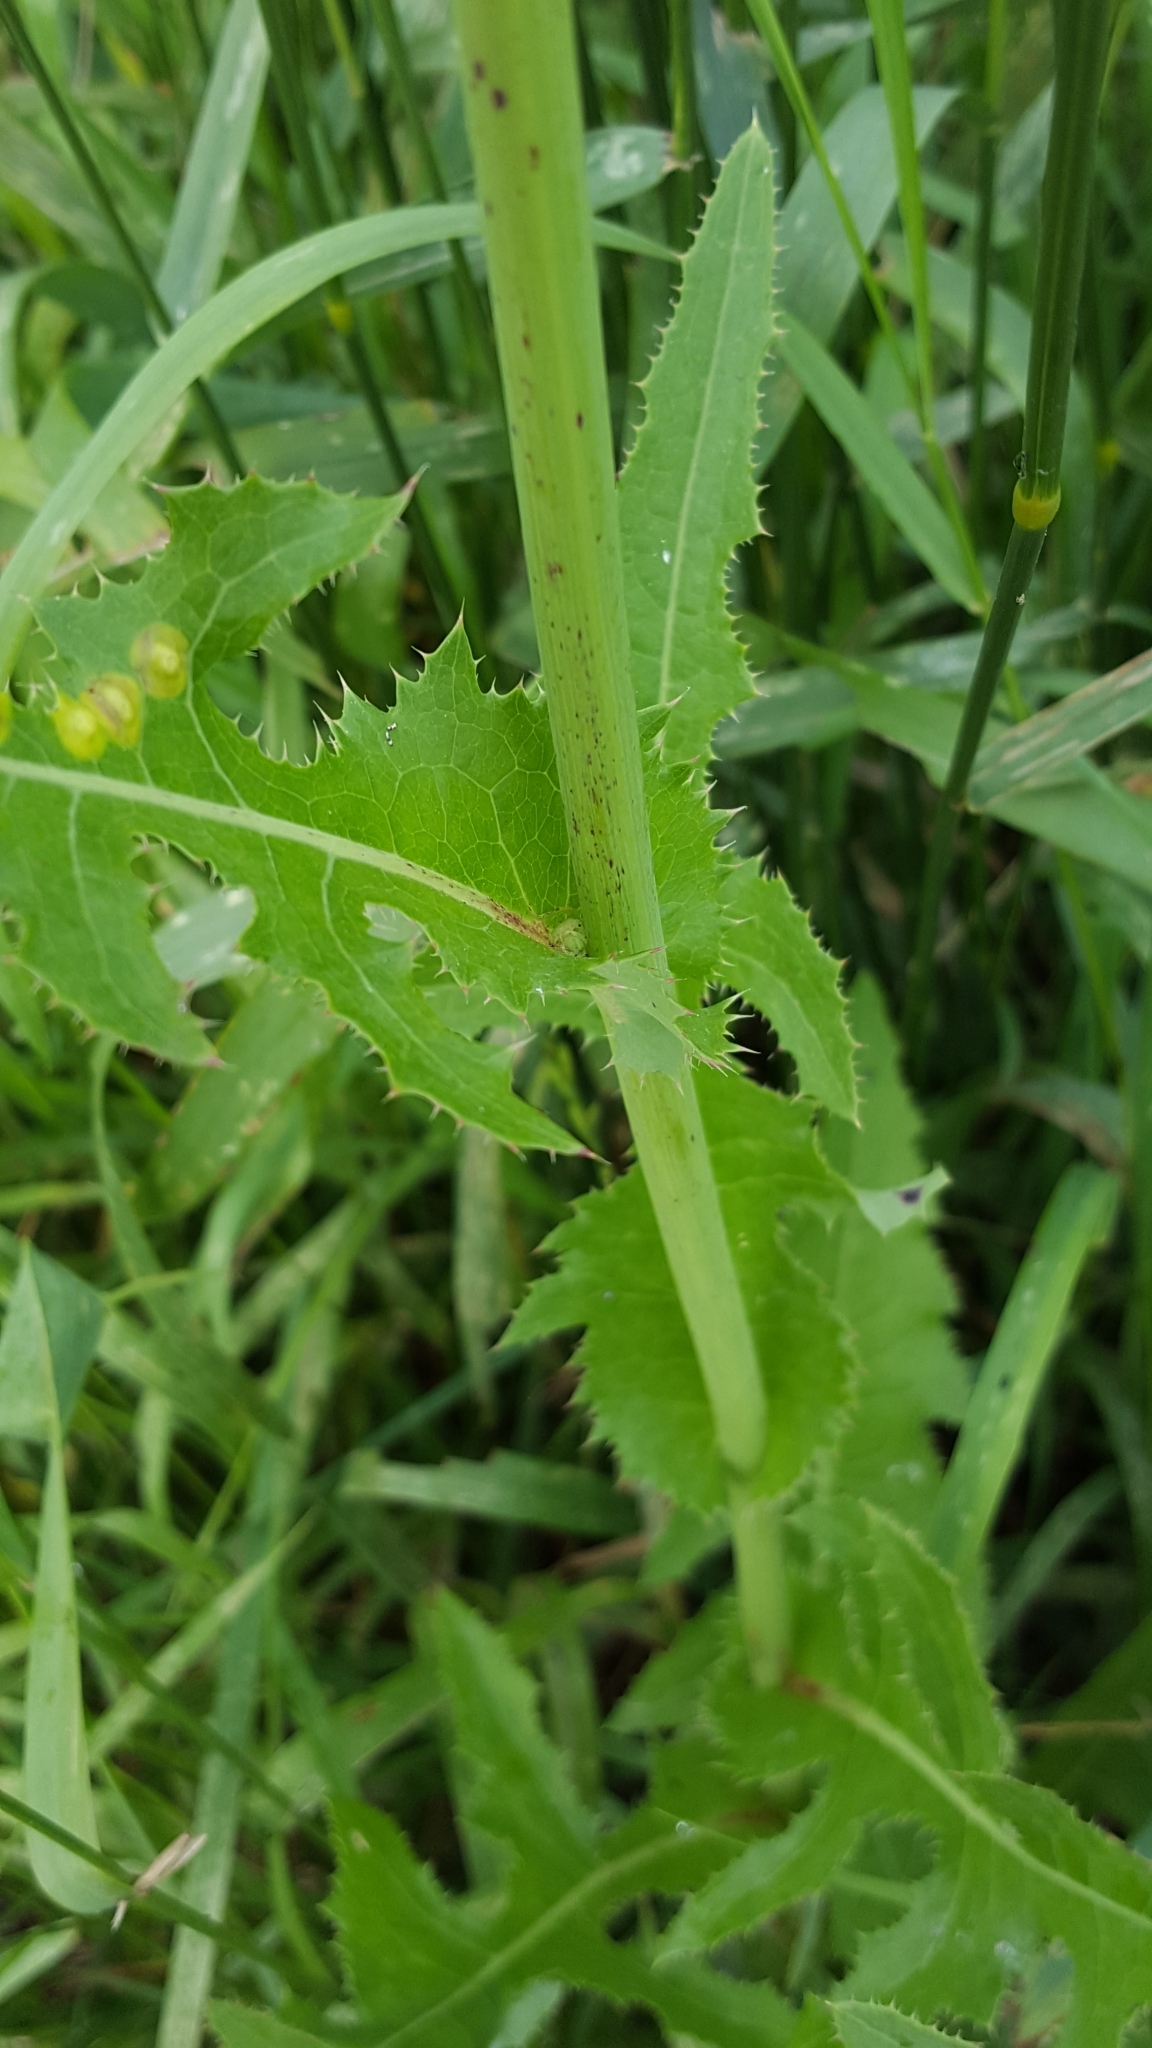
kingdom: Plantae
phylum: Tracheophyta
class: Magnoliopsida
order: Asterales
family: Asteraceae
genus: Sonchus
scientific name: Sonchus arvensis
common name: Perennial sow-thistle
